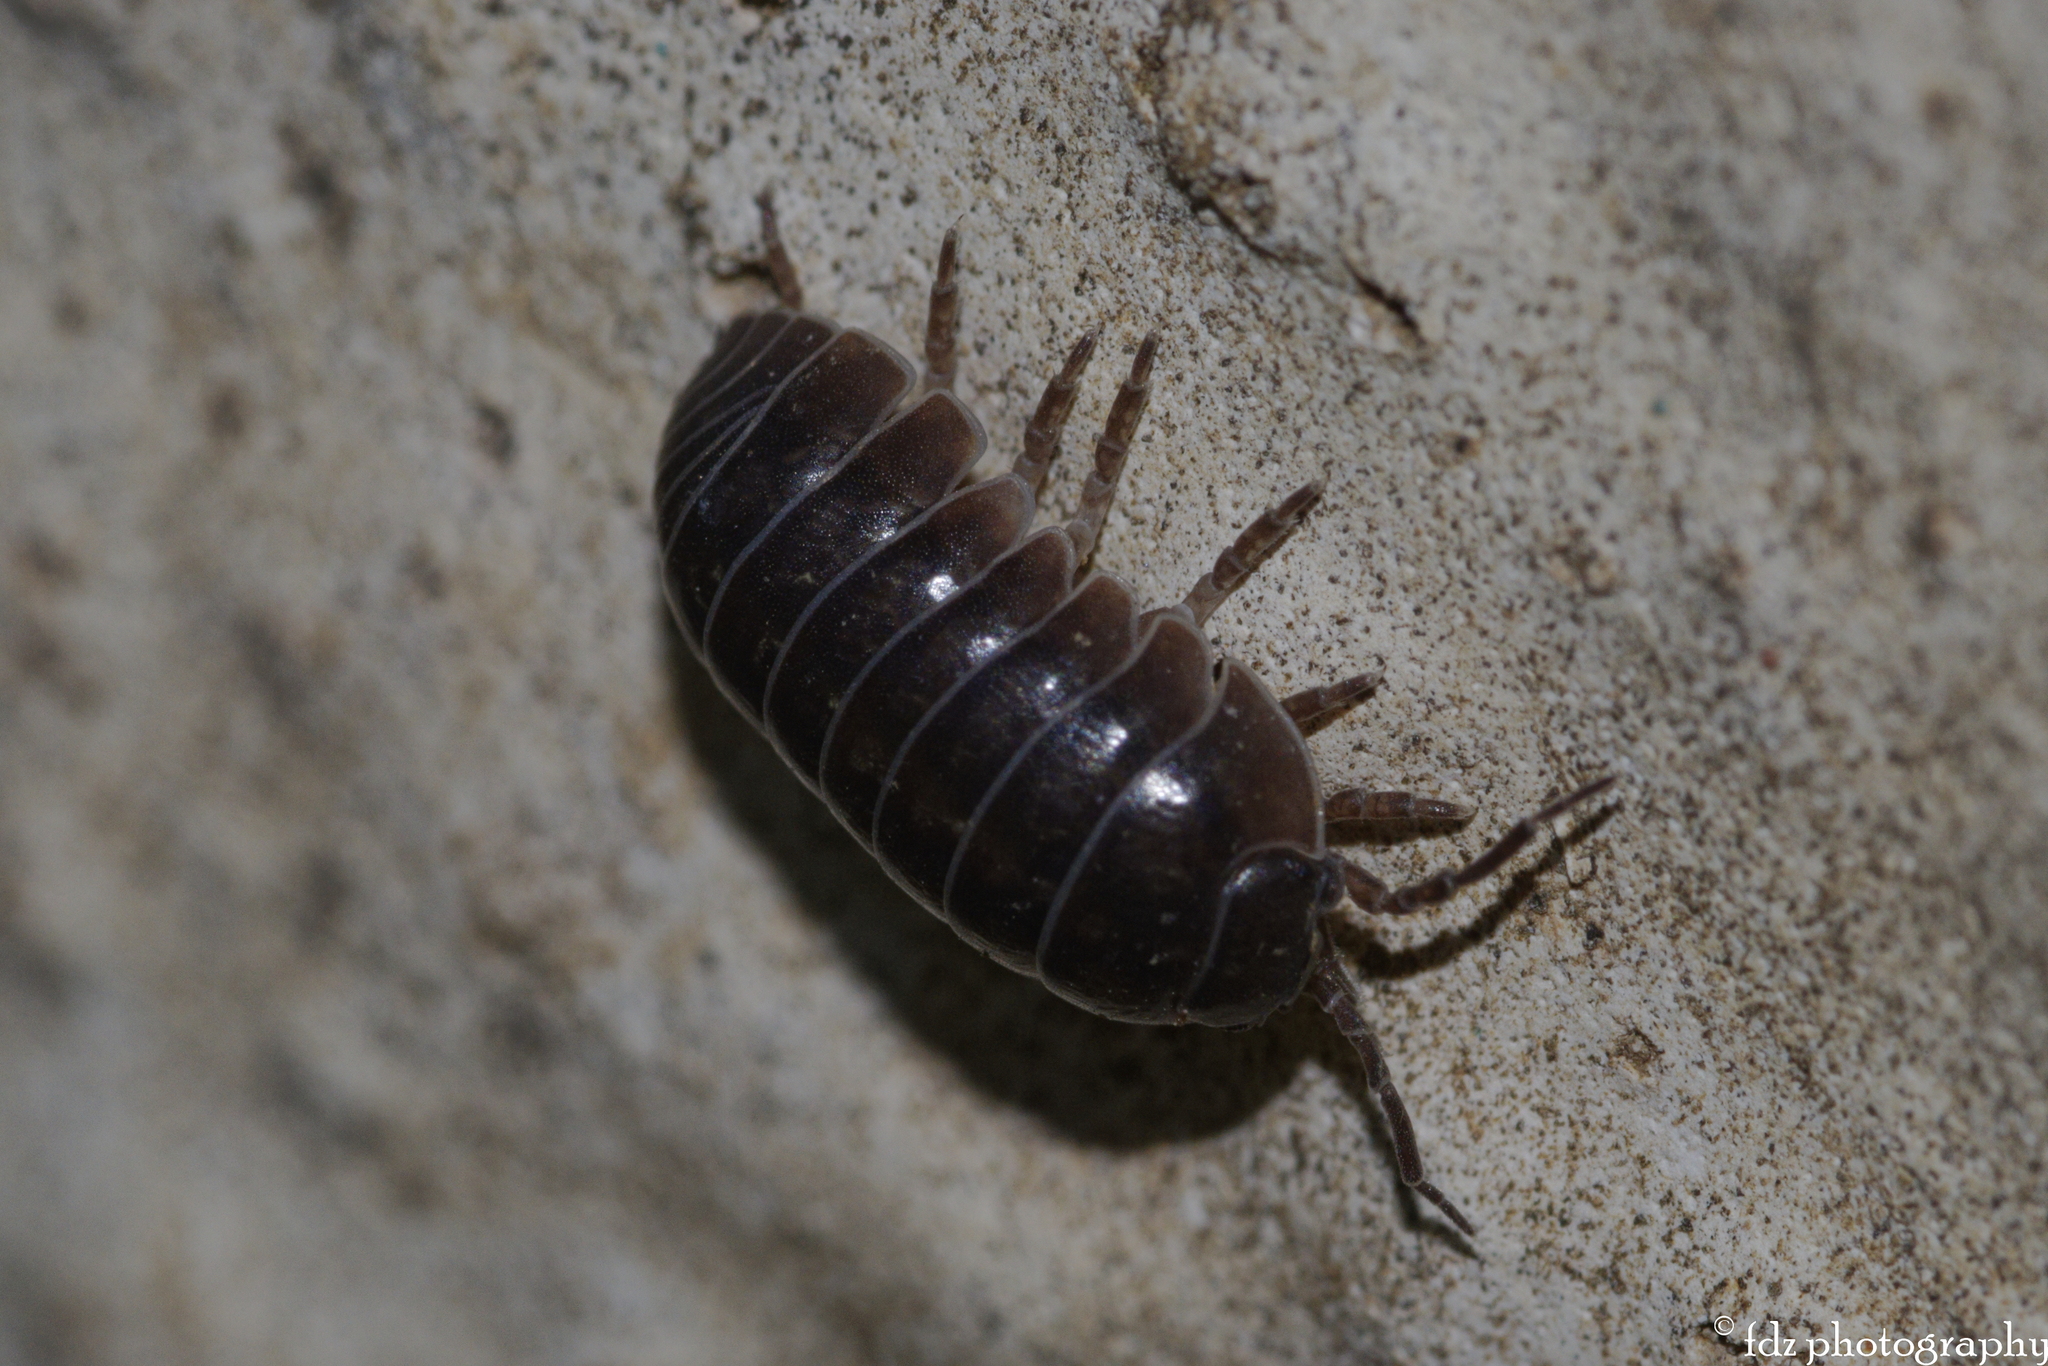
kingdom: Animalia
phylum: Arthropoda
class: Malacostraca
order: Isopoda
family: Armadillidiidae
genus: Armadillidium
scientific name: Armadillidium vulgare
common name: Common pill woodlouse
